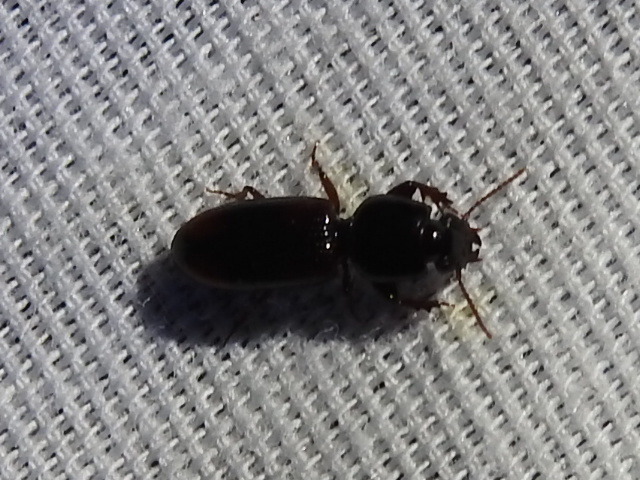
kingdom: Animalia
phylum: Arthropoda
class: Insecta
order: Coleoptera
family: Carabidae
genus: Aspidoglossa
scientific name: Aspidoglossa subangulata
